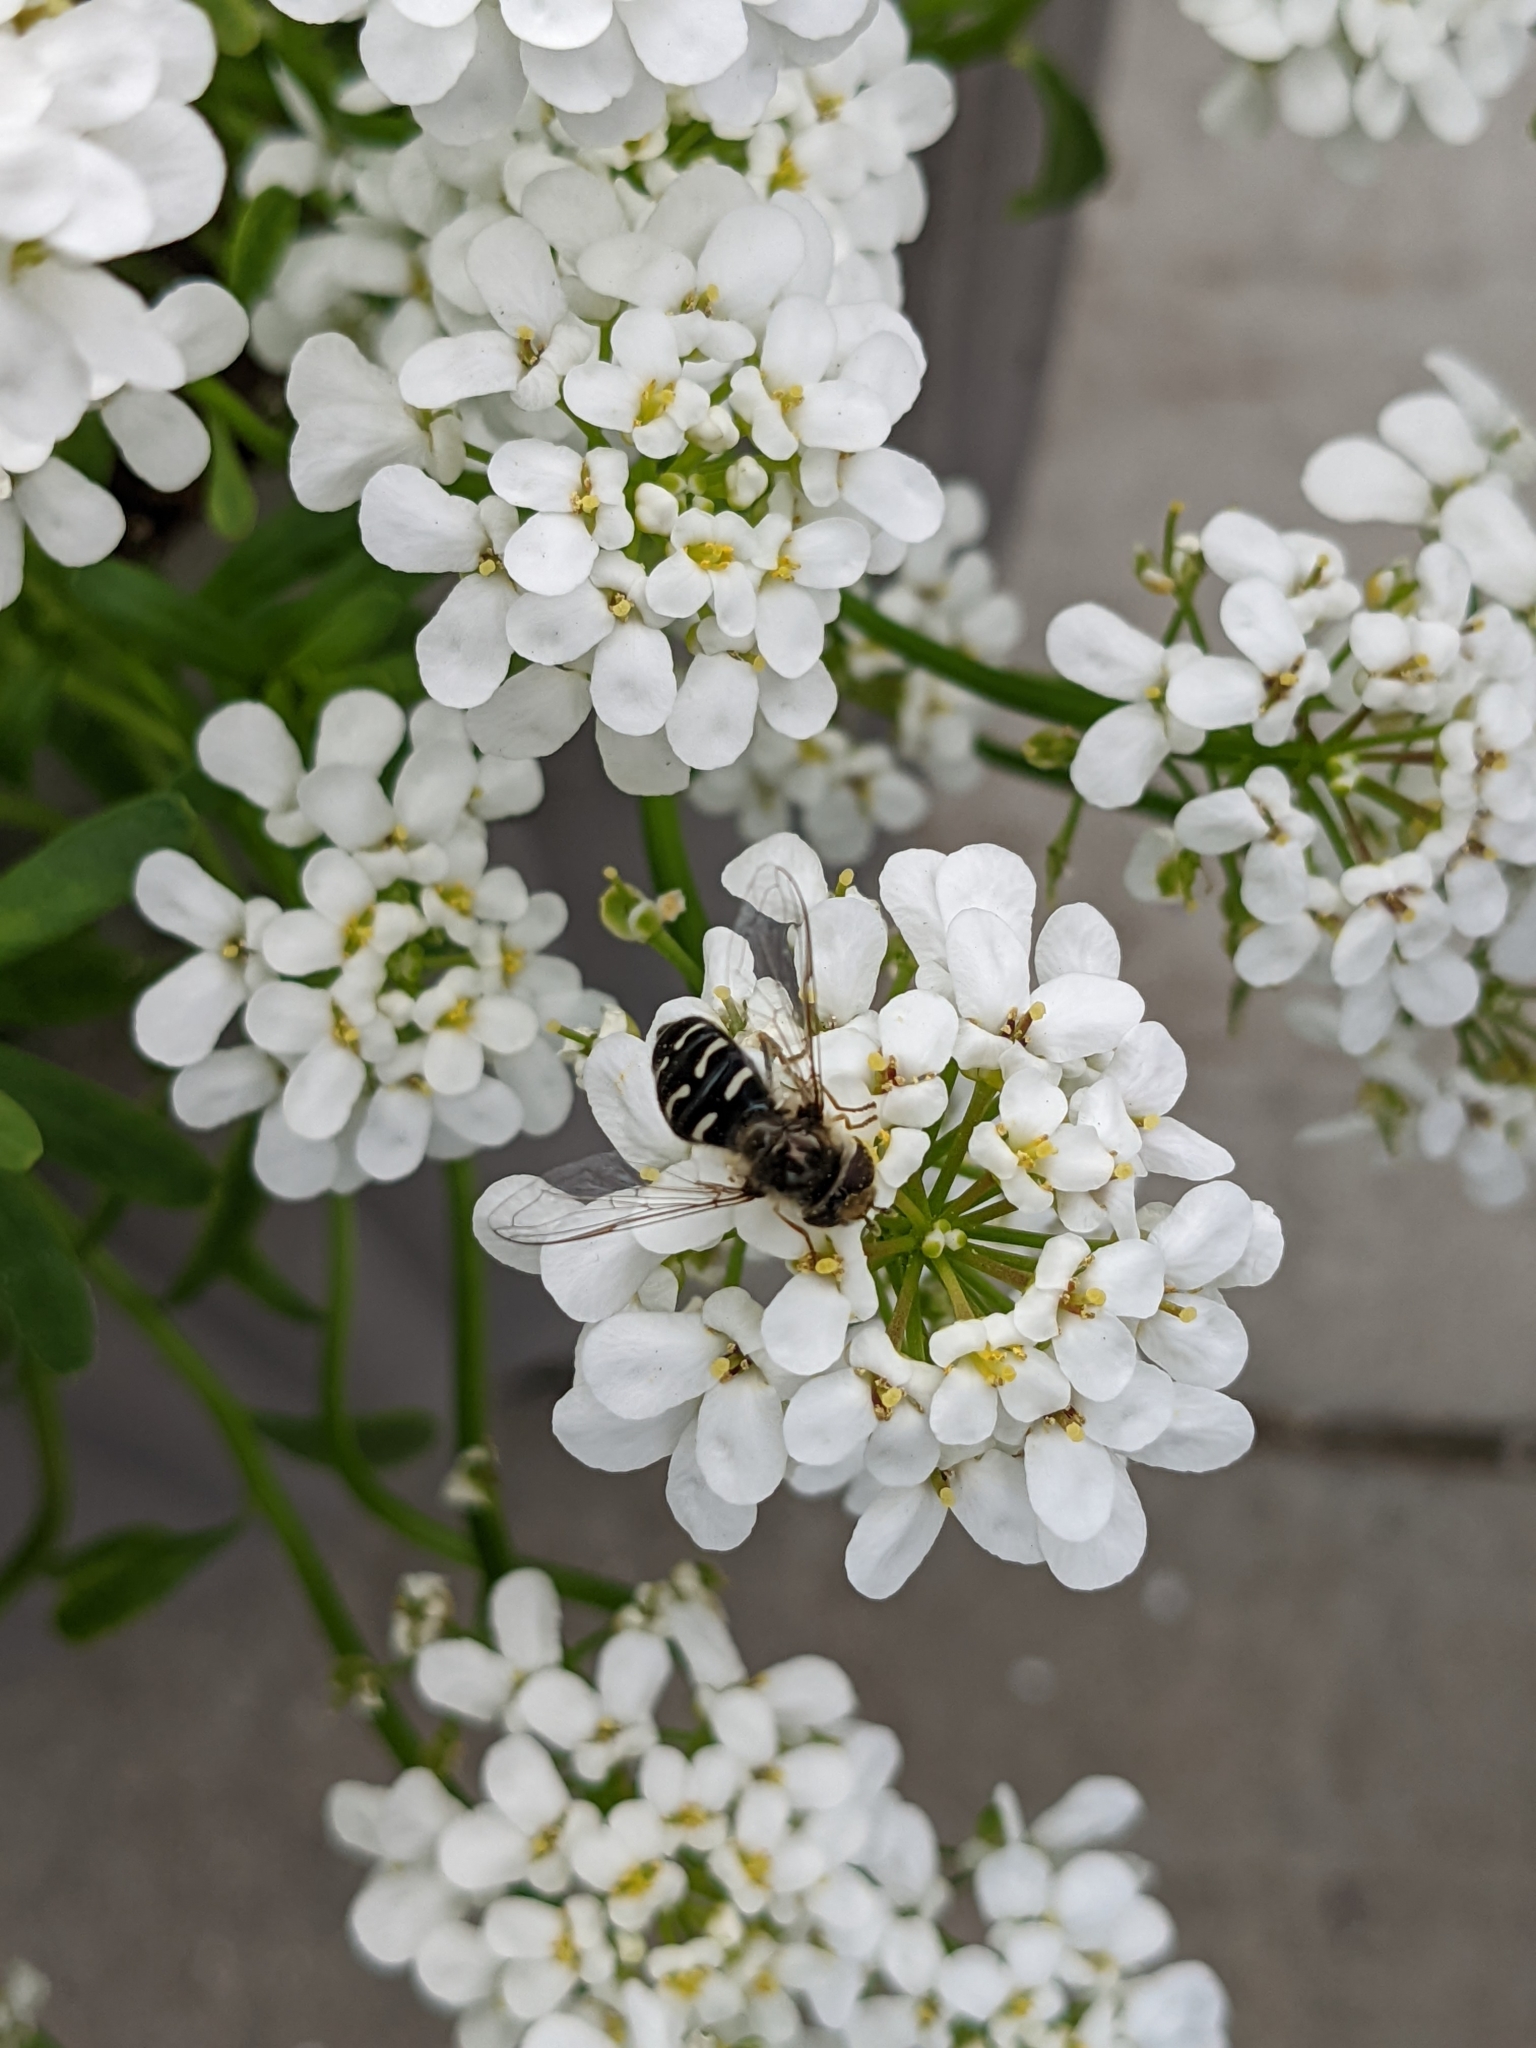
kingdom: Animalia
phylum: Arthropoda
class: Insecta
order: Diptera
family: Syrphidae
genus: Scaeva
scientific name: Scaeva affinis
